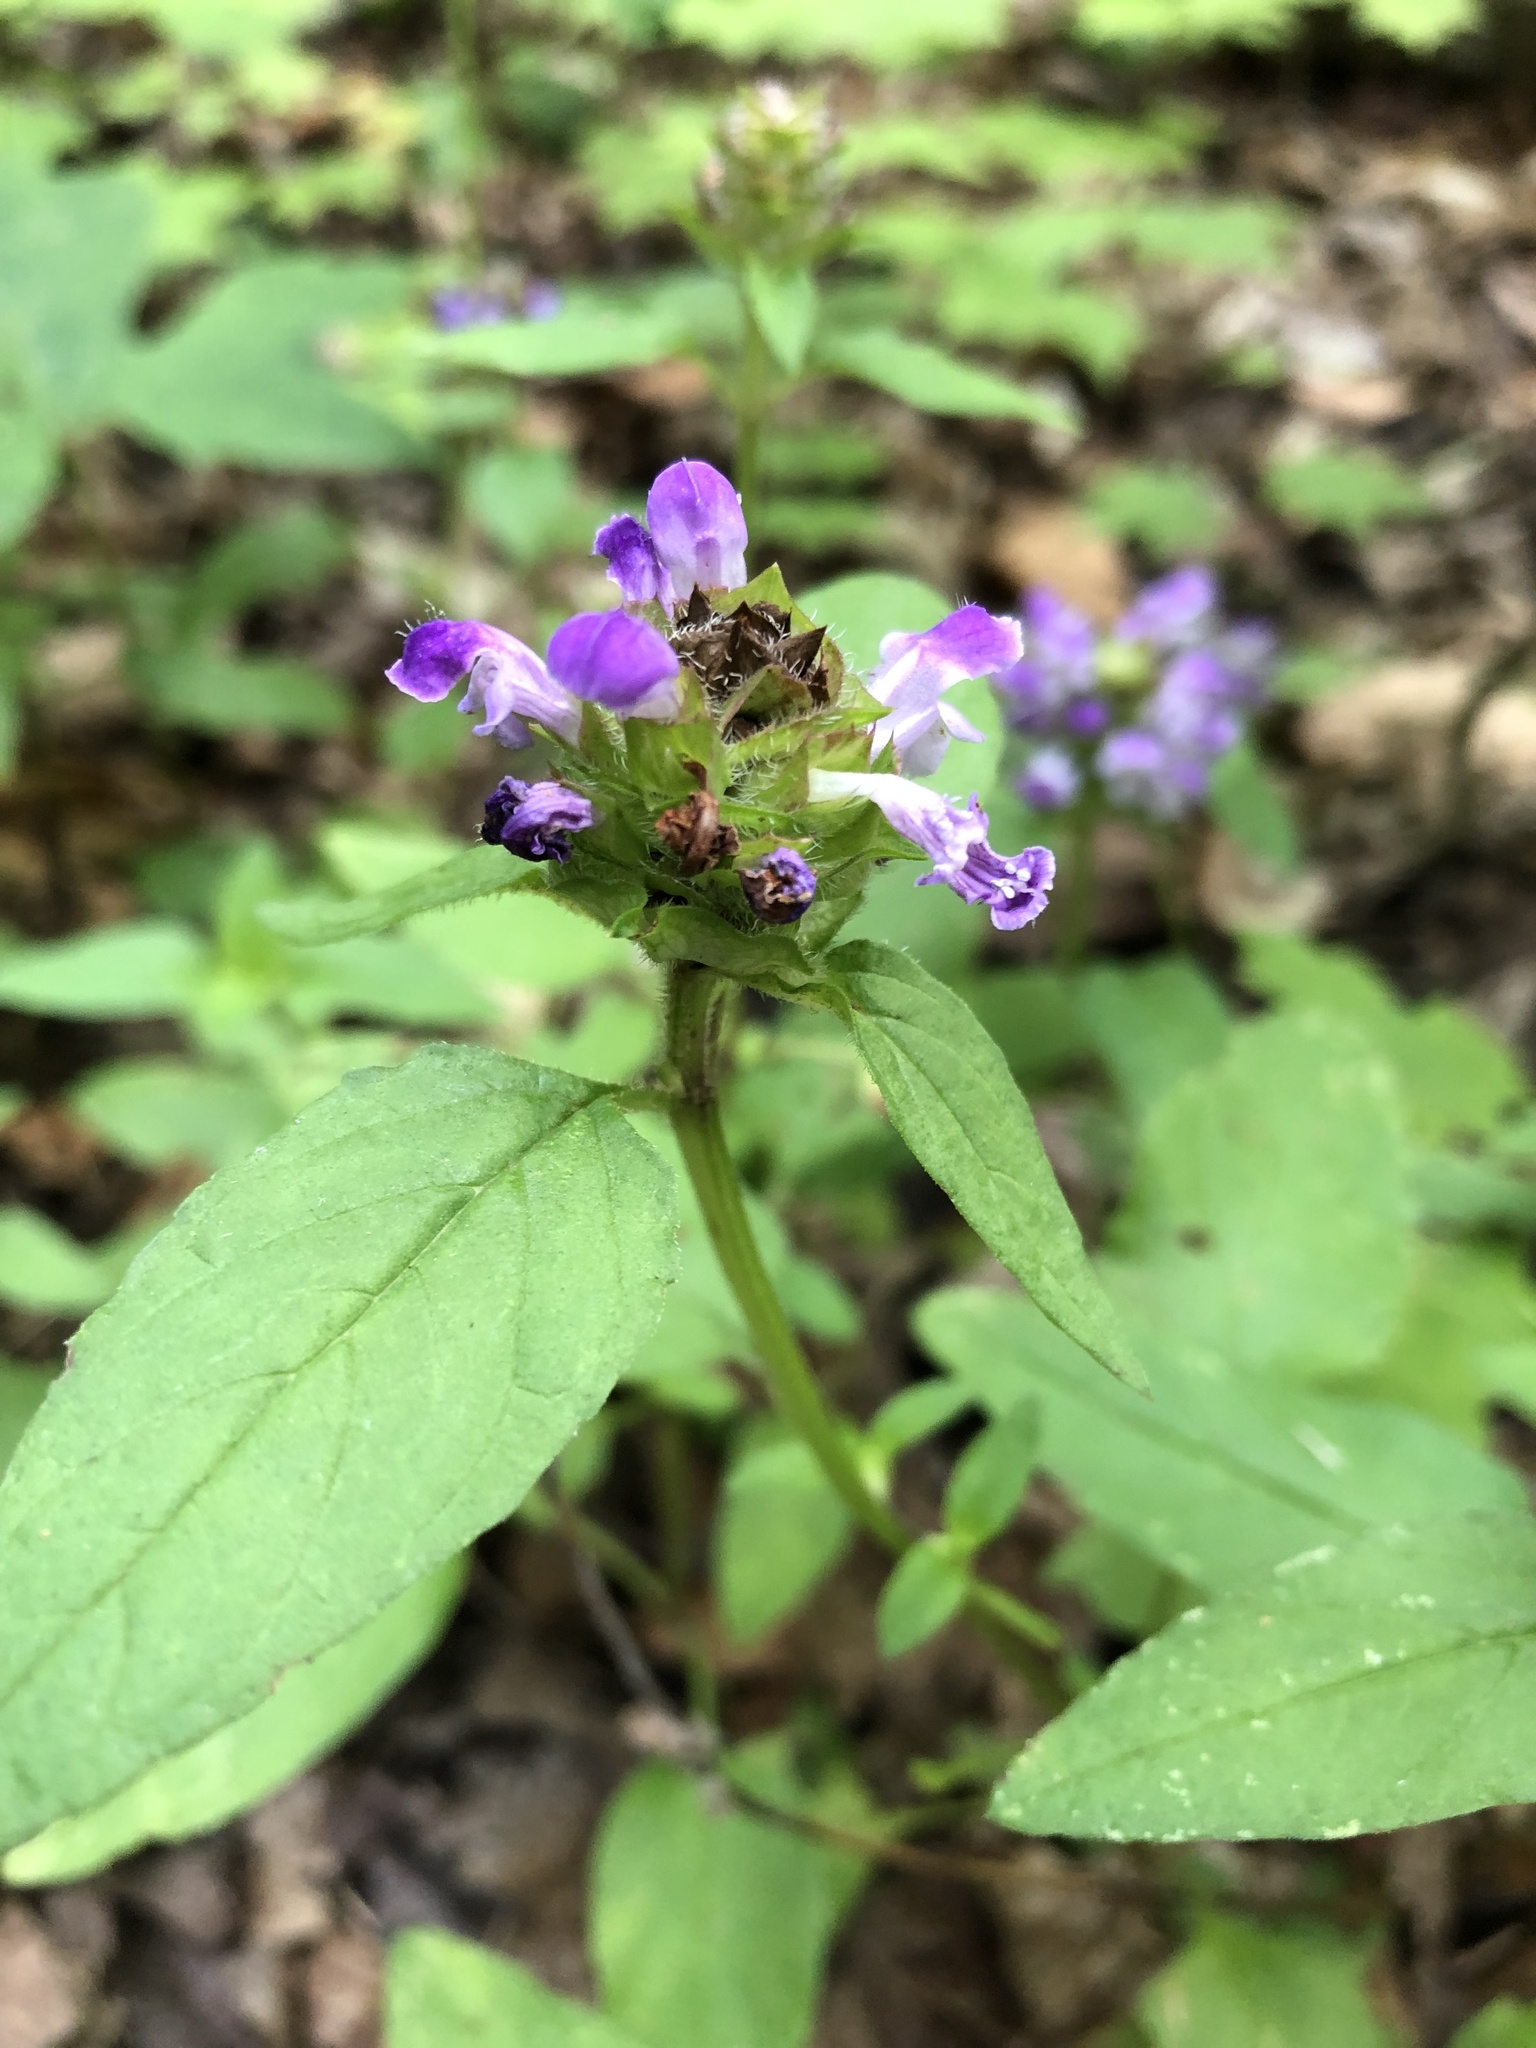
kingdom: Plantae
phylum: Tracheophyta
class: Magnoliopsida
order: Lamiales
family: Lamiaceae
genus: Prunella
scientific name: Prunella vulgaris
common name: Heal-all
